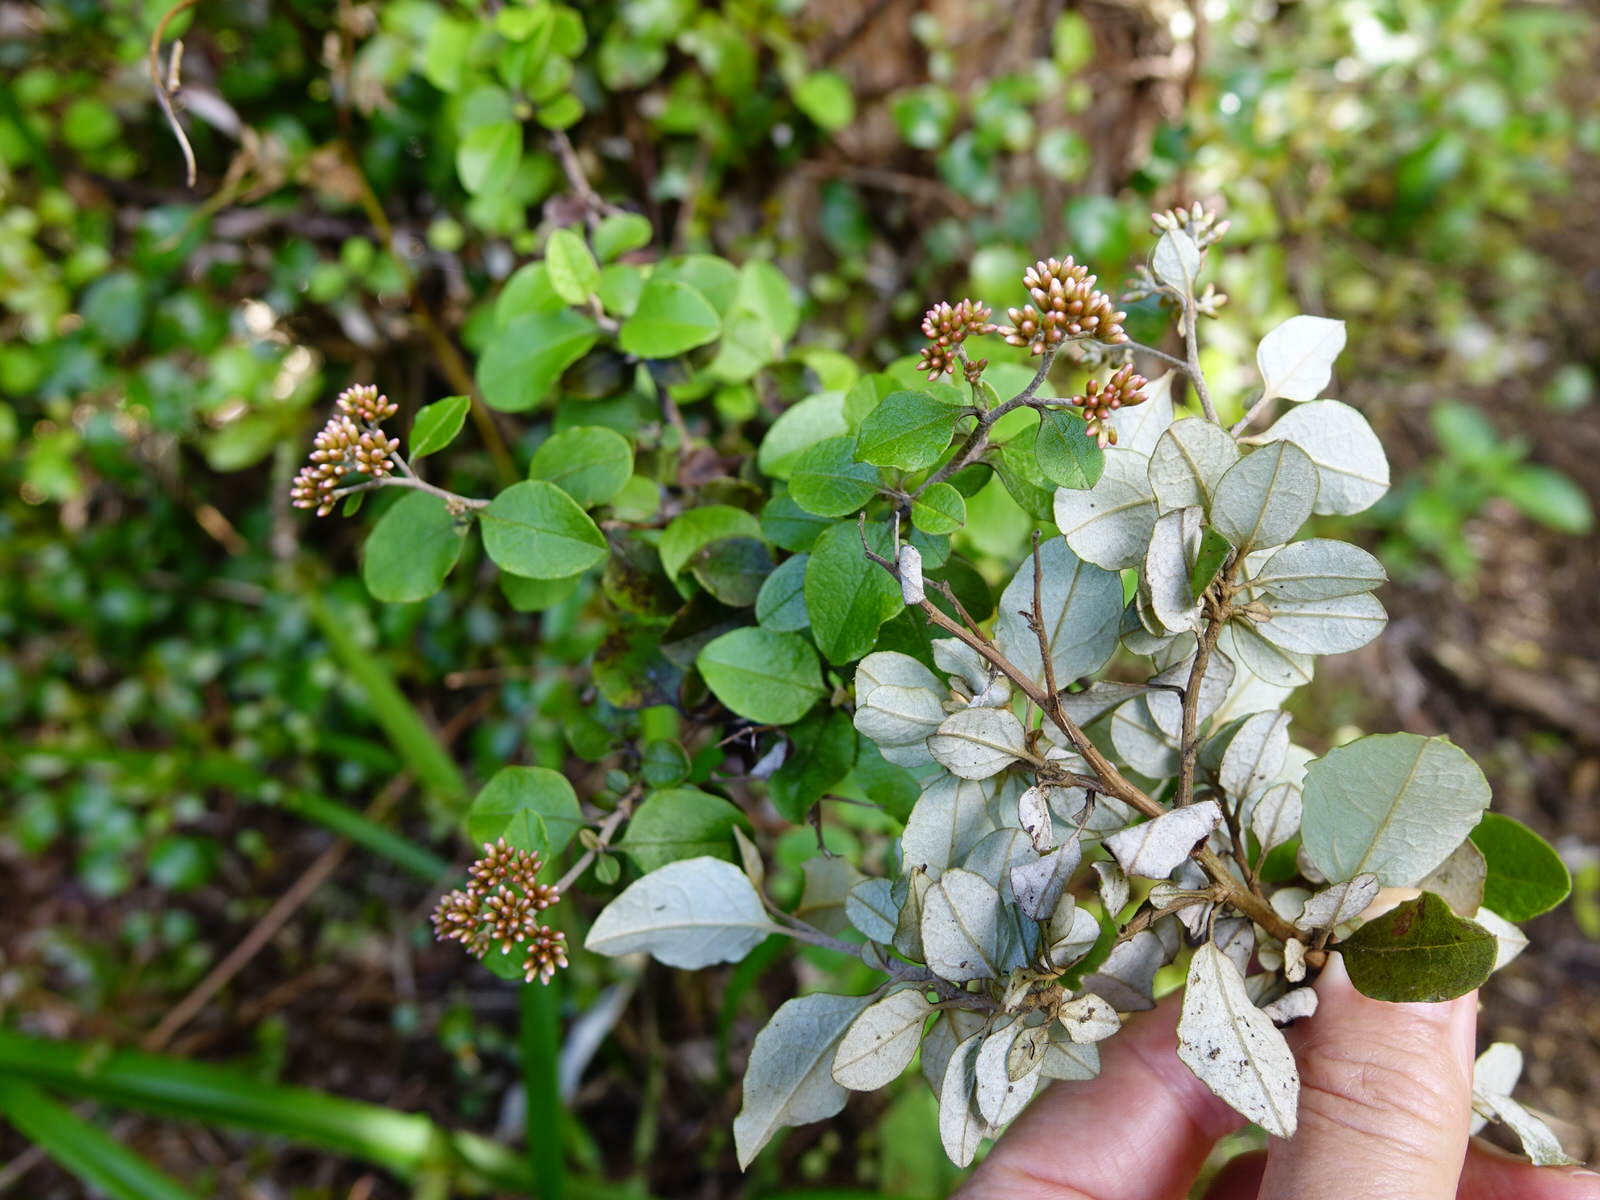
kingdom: Plantae
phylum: Tracheophyta
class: Magnoliopsida
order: Asterales
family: Asteraceae
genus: Ozothamnus
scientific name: Ozothamnus glomeratus
